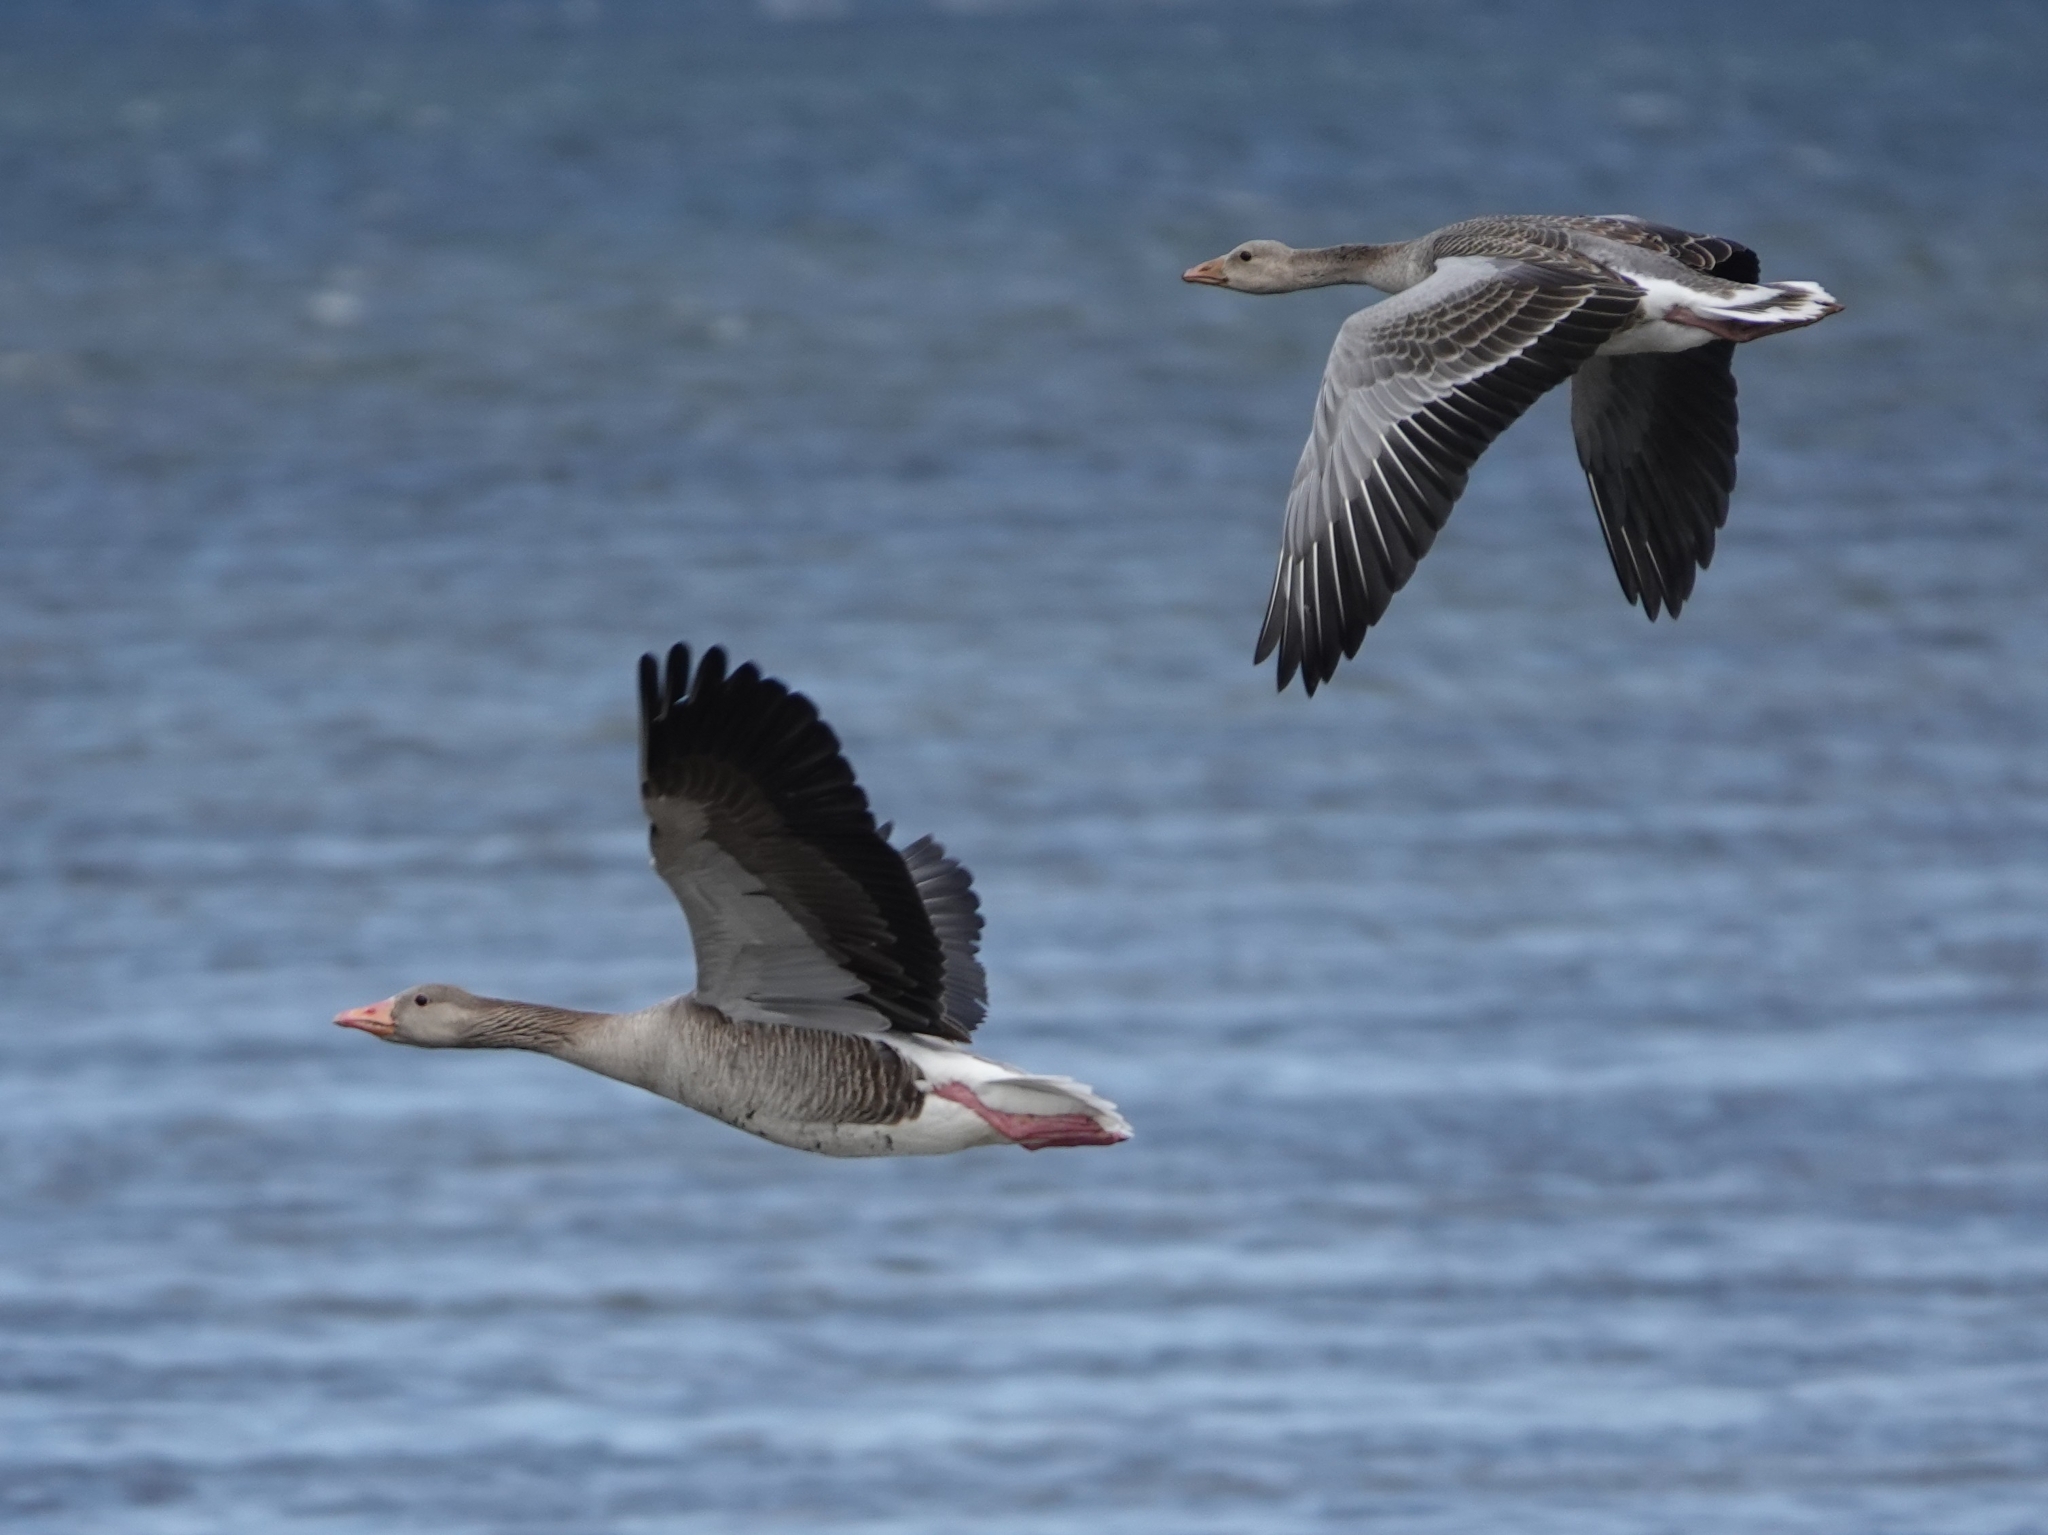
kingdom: Animalia
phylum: Chordata
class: Aves
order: Anseriformes
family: Anatidae
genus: Anser
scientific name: Anser anser
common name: Greylag goose
